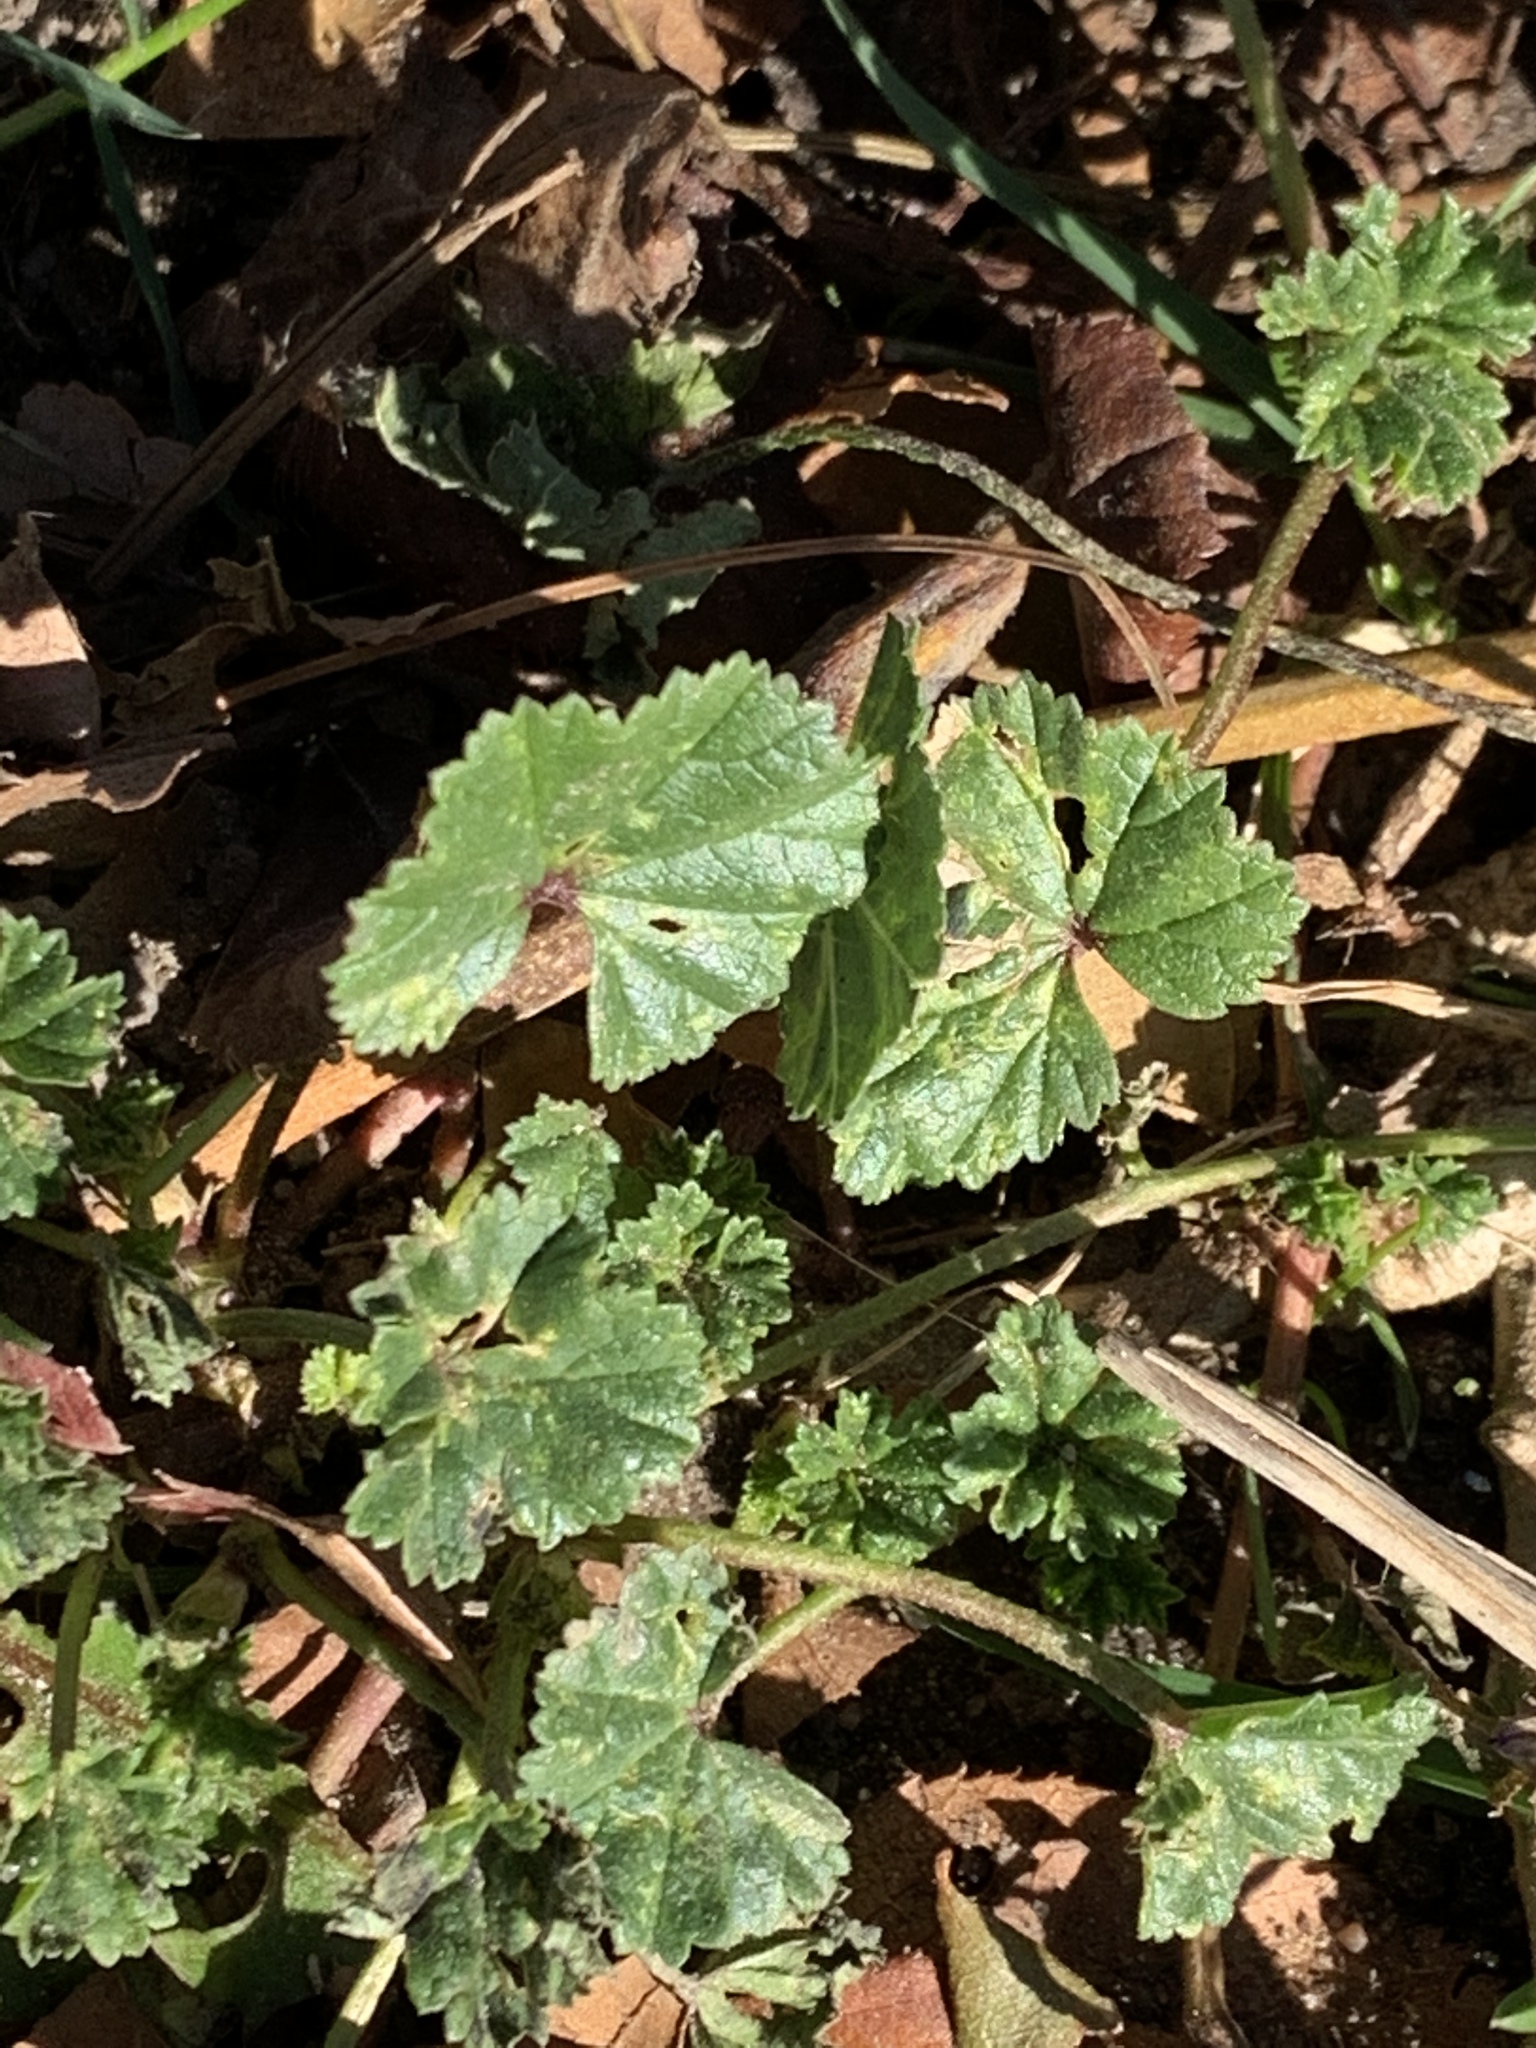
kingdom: Plantae
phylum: Tracheophyta
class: Magnoliopsida
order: Malvales
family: Malvaceae
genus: Malva
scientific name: Malva neglecta
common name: Common mallow
